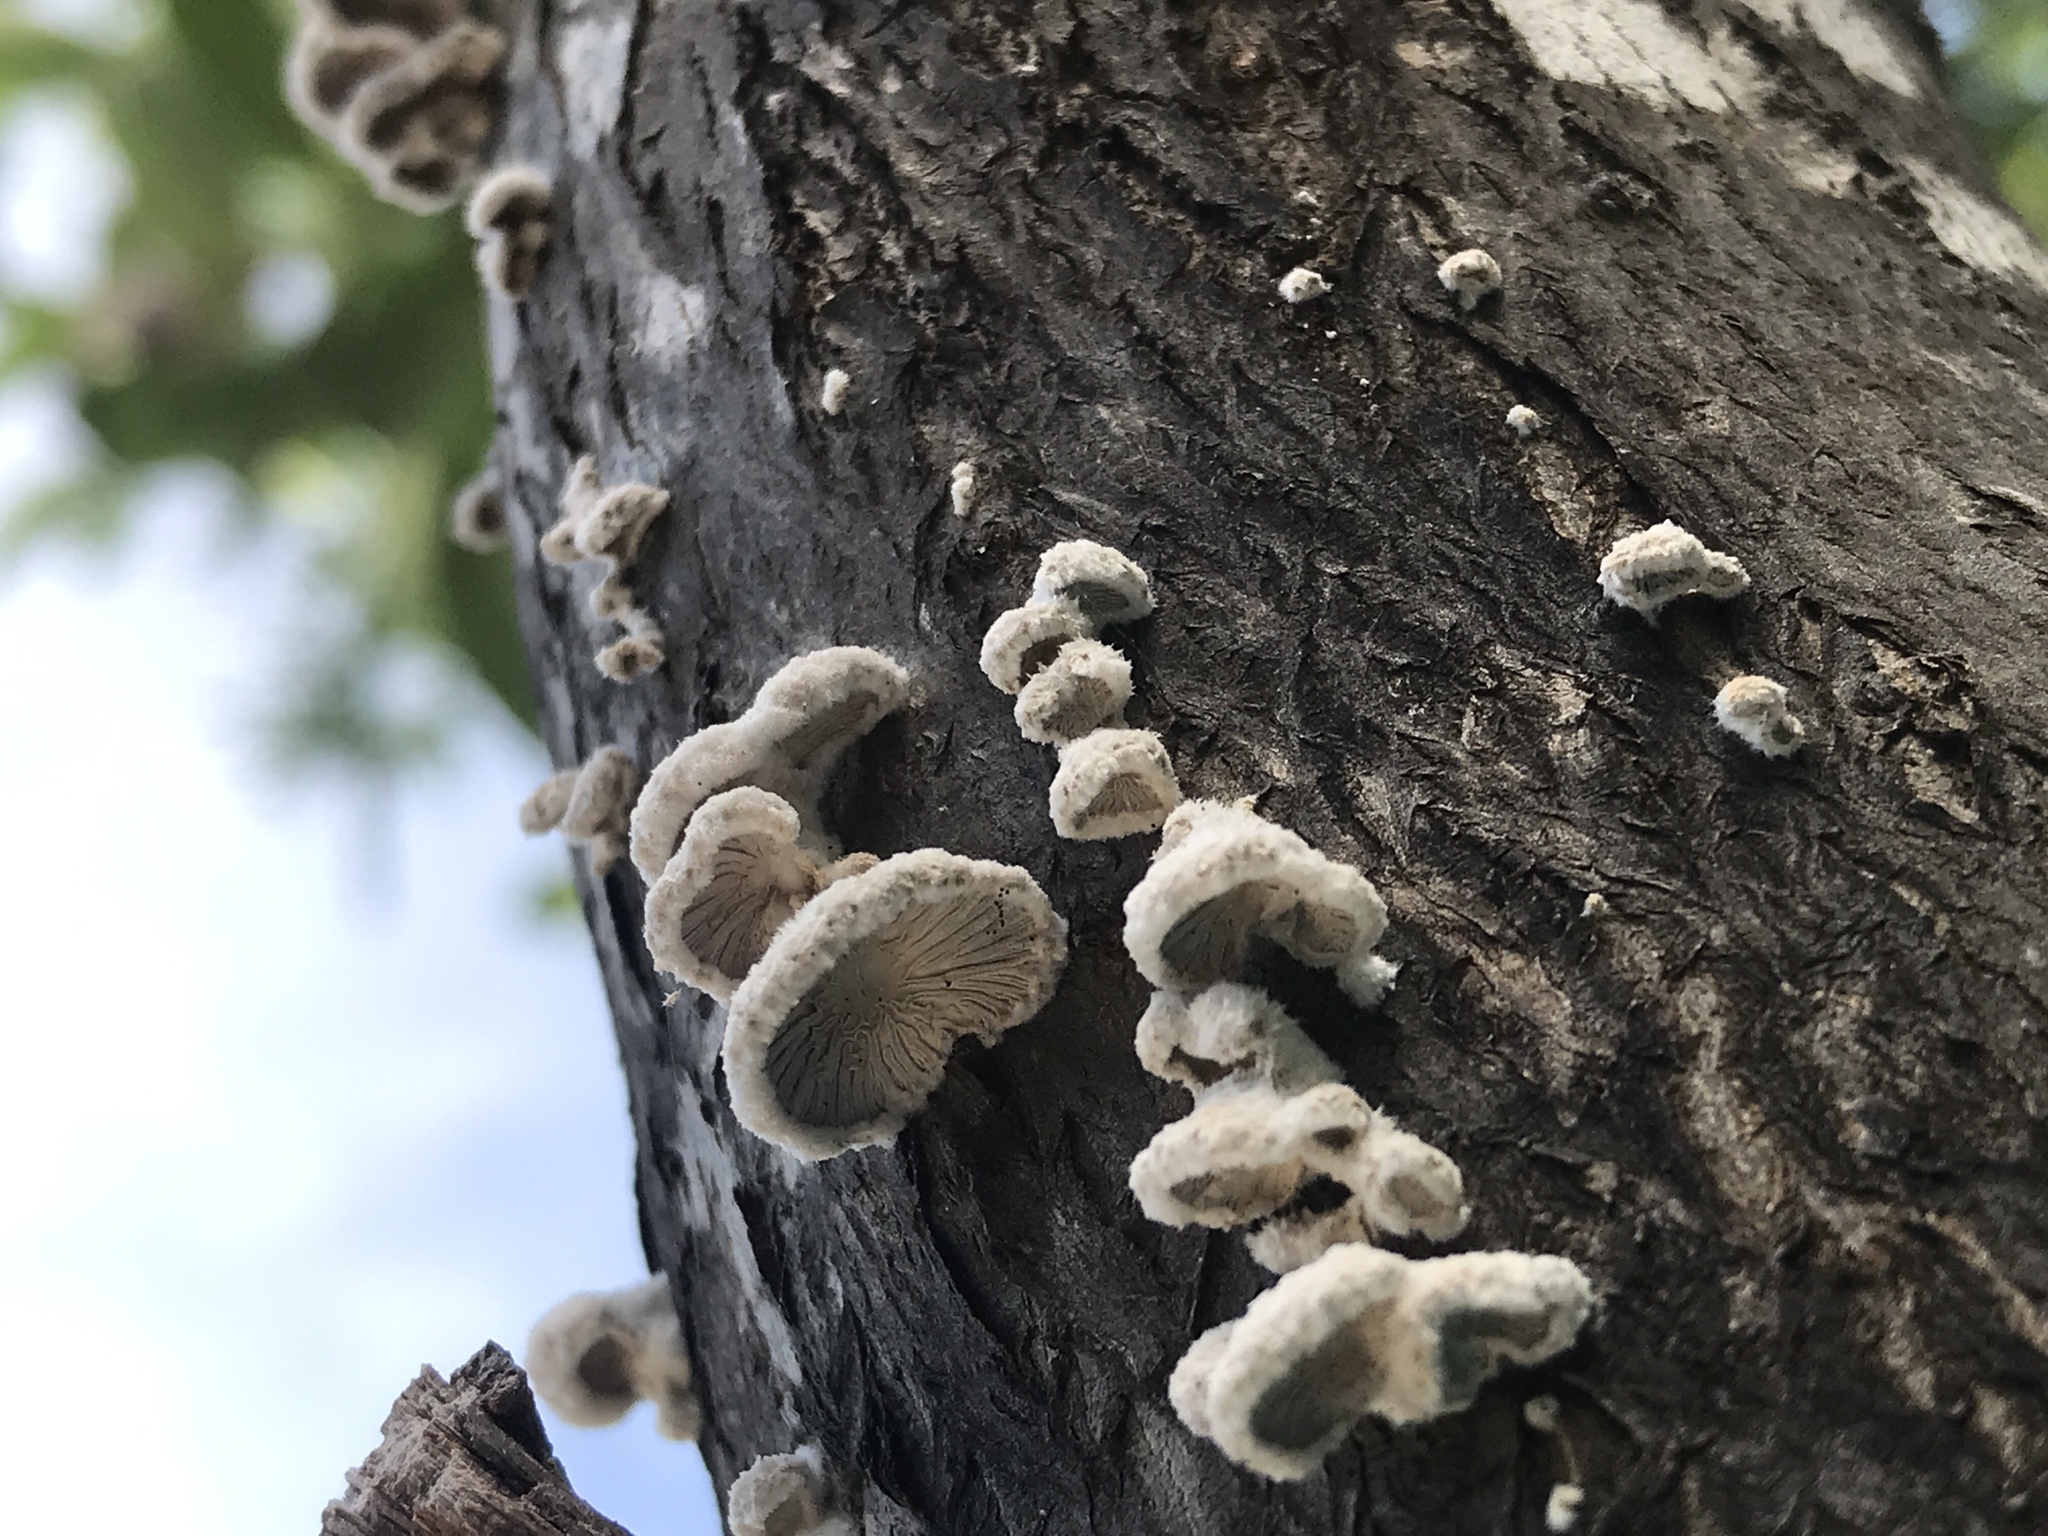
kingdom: Fungi
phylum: Basidiomycota
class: Agaricomycetes
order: Agaricales
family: Schizophyllaceae
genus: Schizophyllum
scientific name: Schizophyllum commune
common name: Common porecrust
